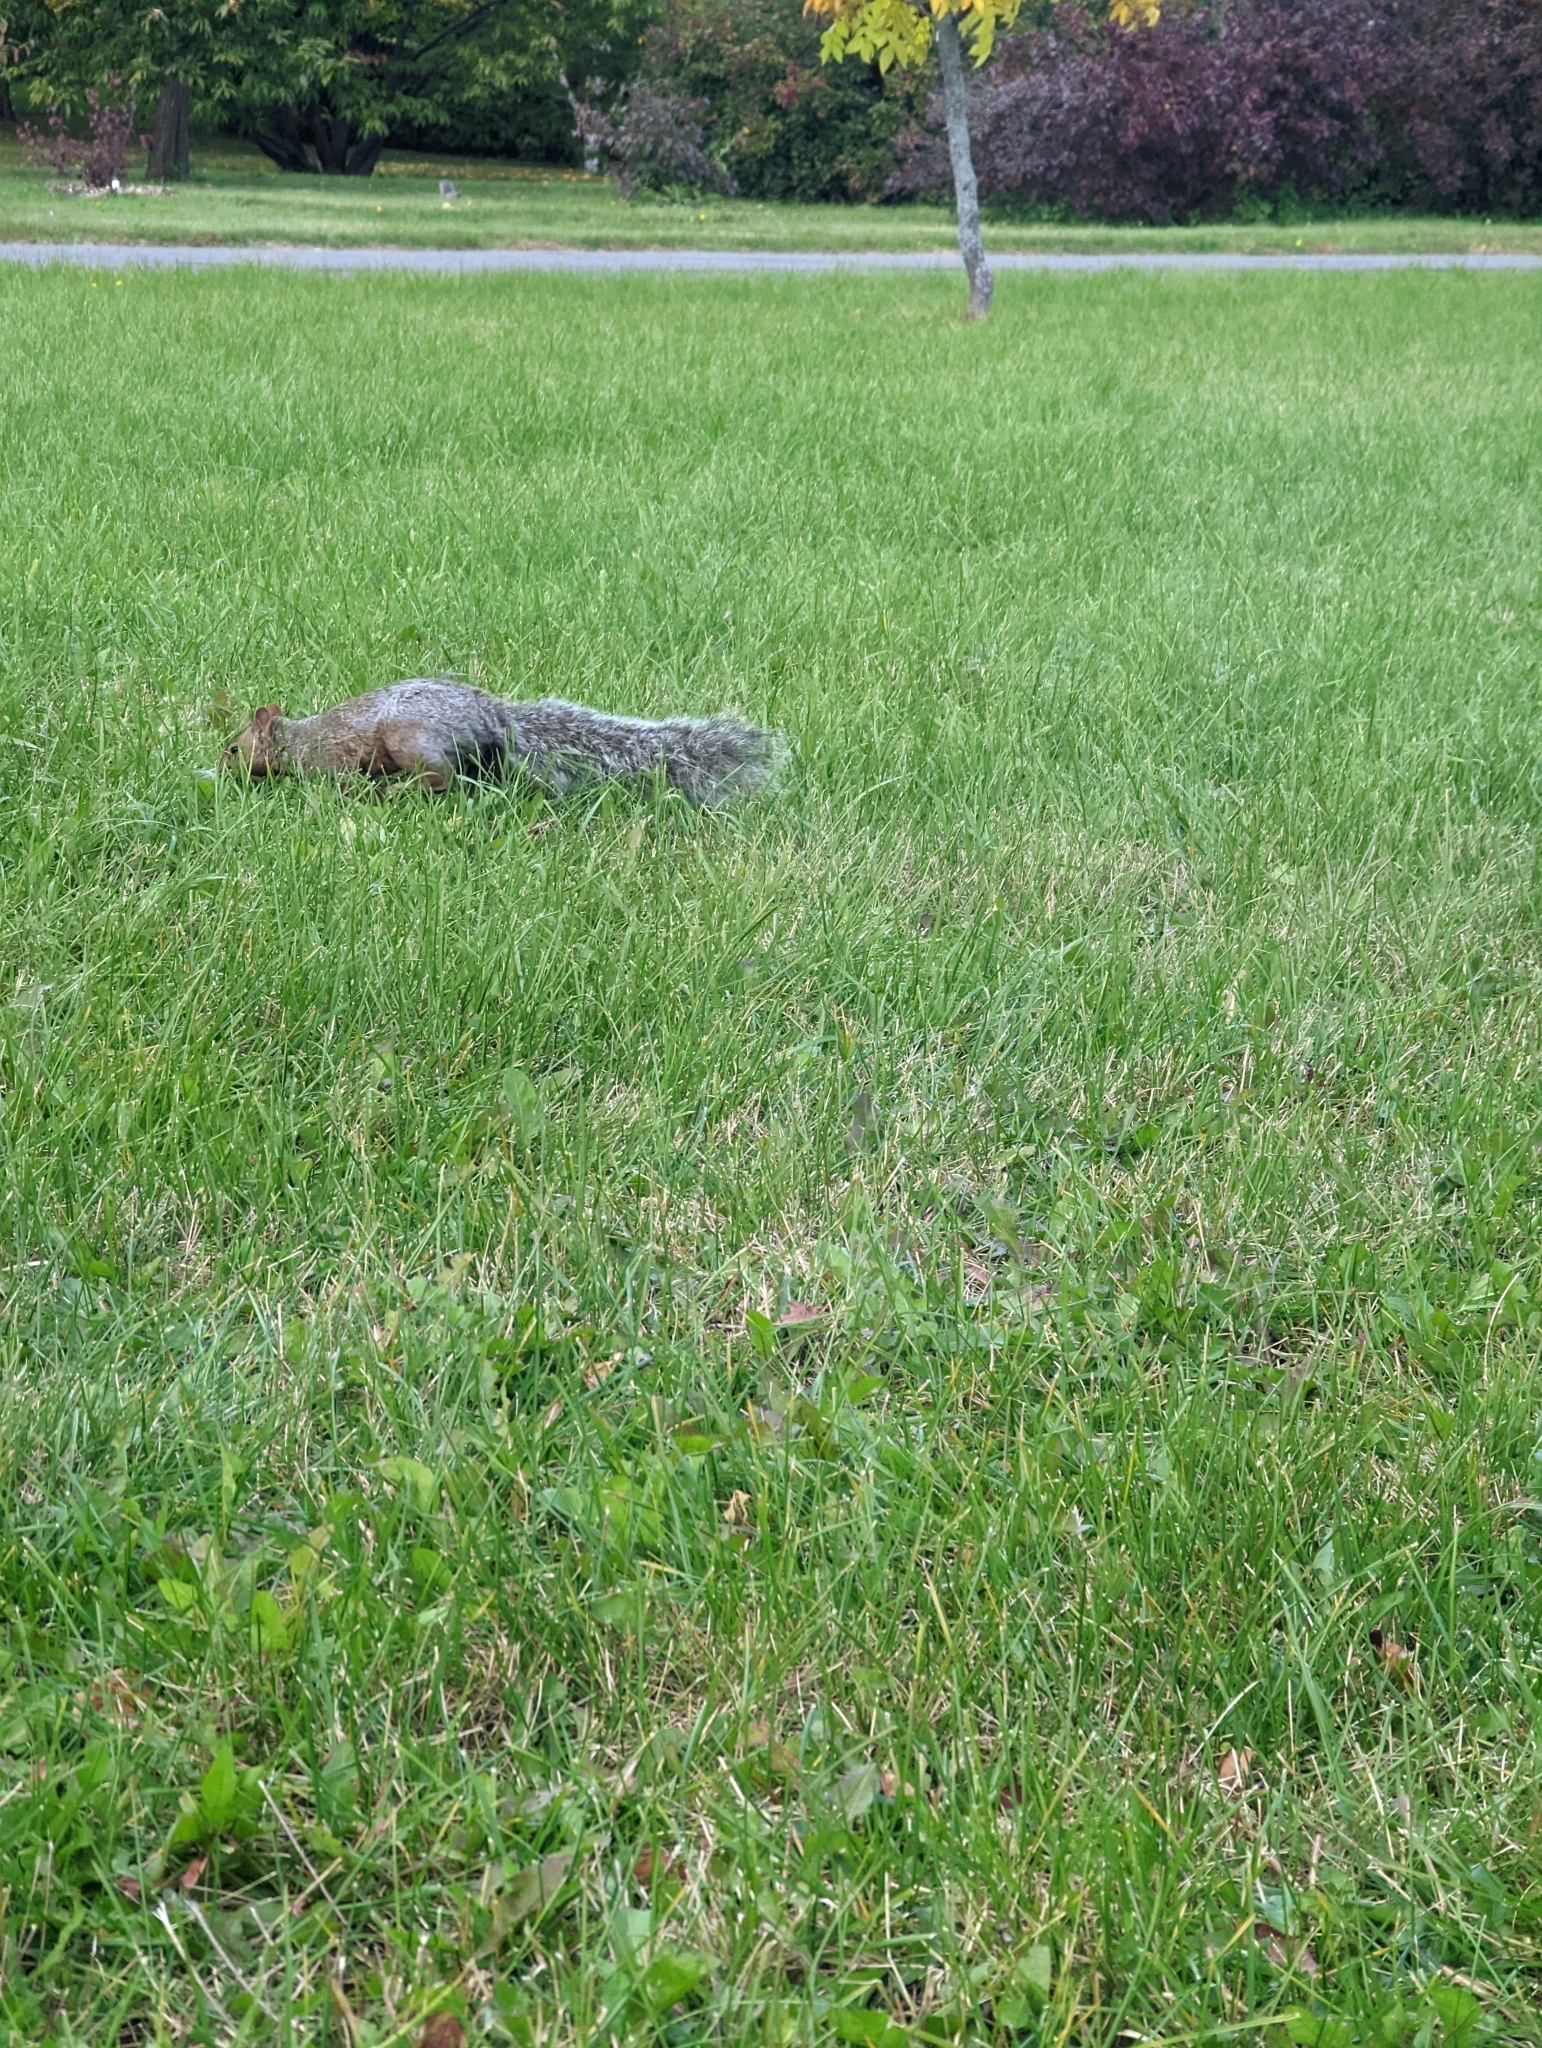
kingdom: Animalia
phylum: Chordata
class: Mammalia
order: Rodentia
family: Sciuridae
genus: Sciurus
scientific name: Sciurus carolinensis
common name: Eastern gray squirrel
